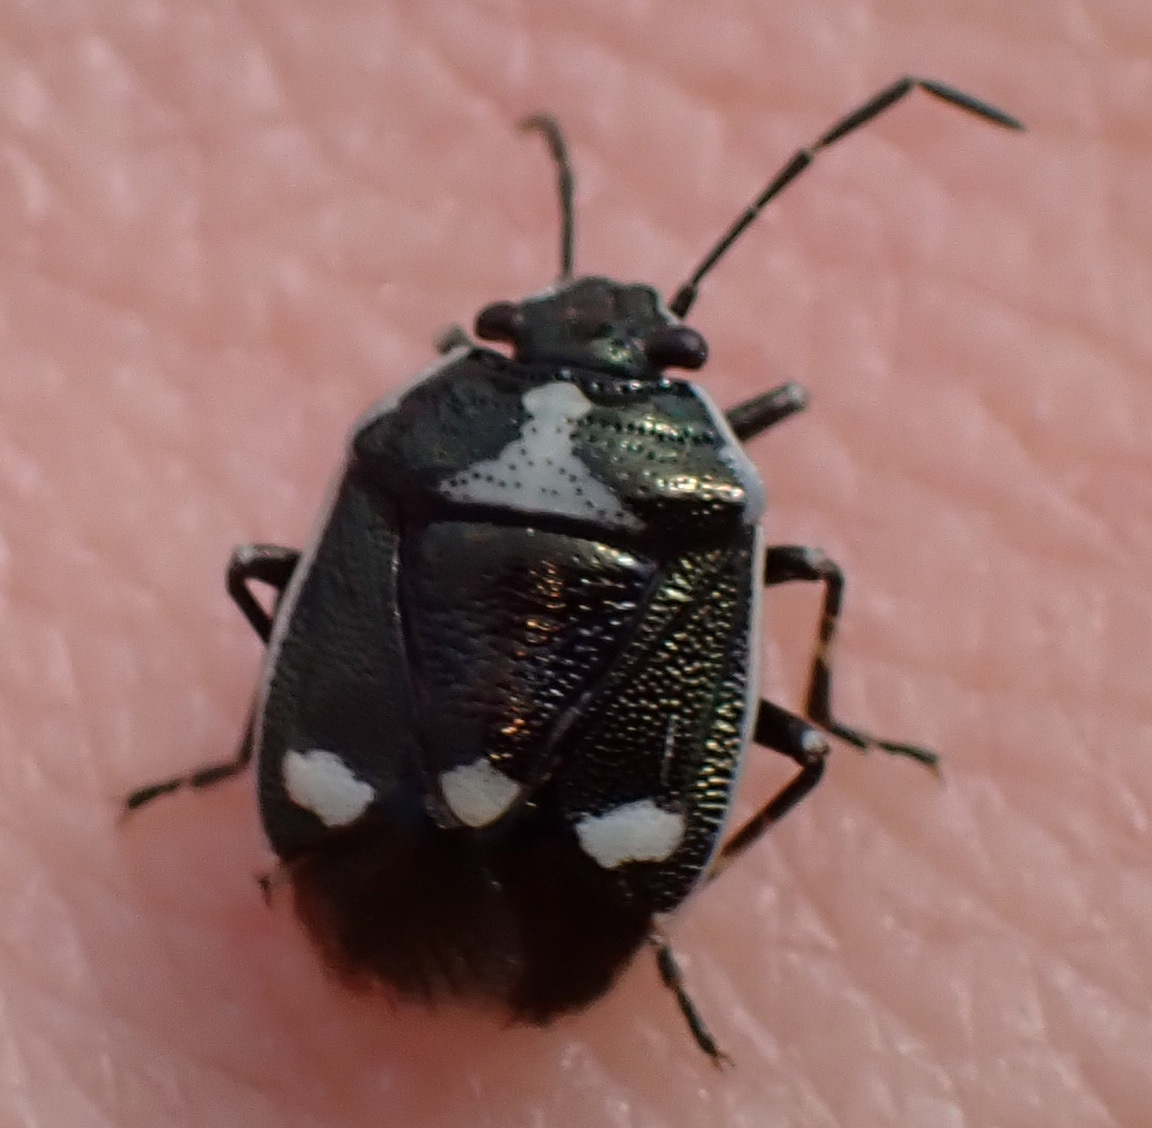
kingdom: Animalia
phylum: Arthropoda
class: Insecta
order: Hemiptera
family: Pentatomidae
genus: Eurydema
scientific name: Eurydema oleracea
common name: Cabbage bug
